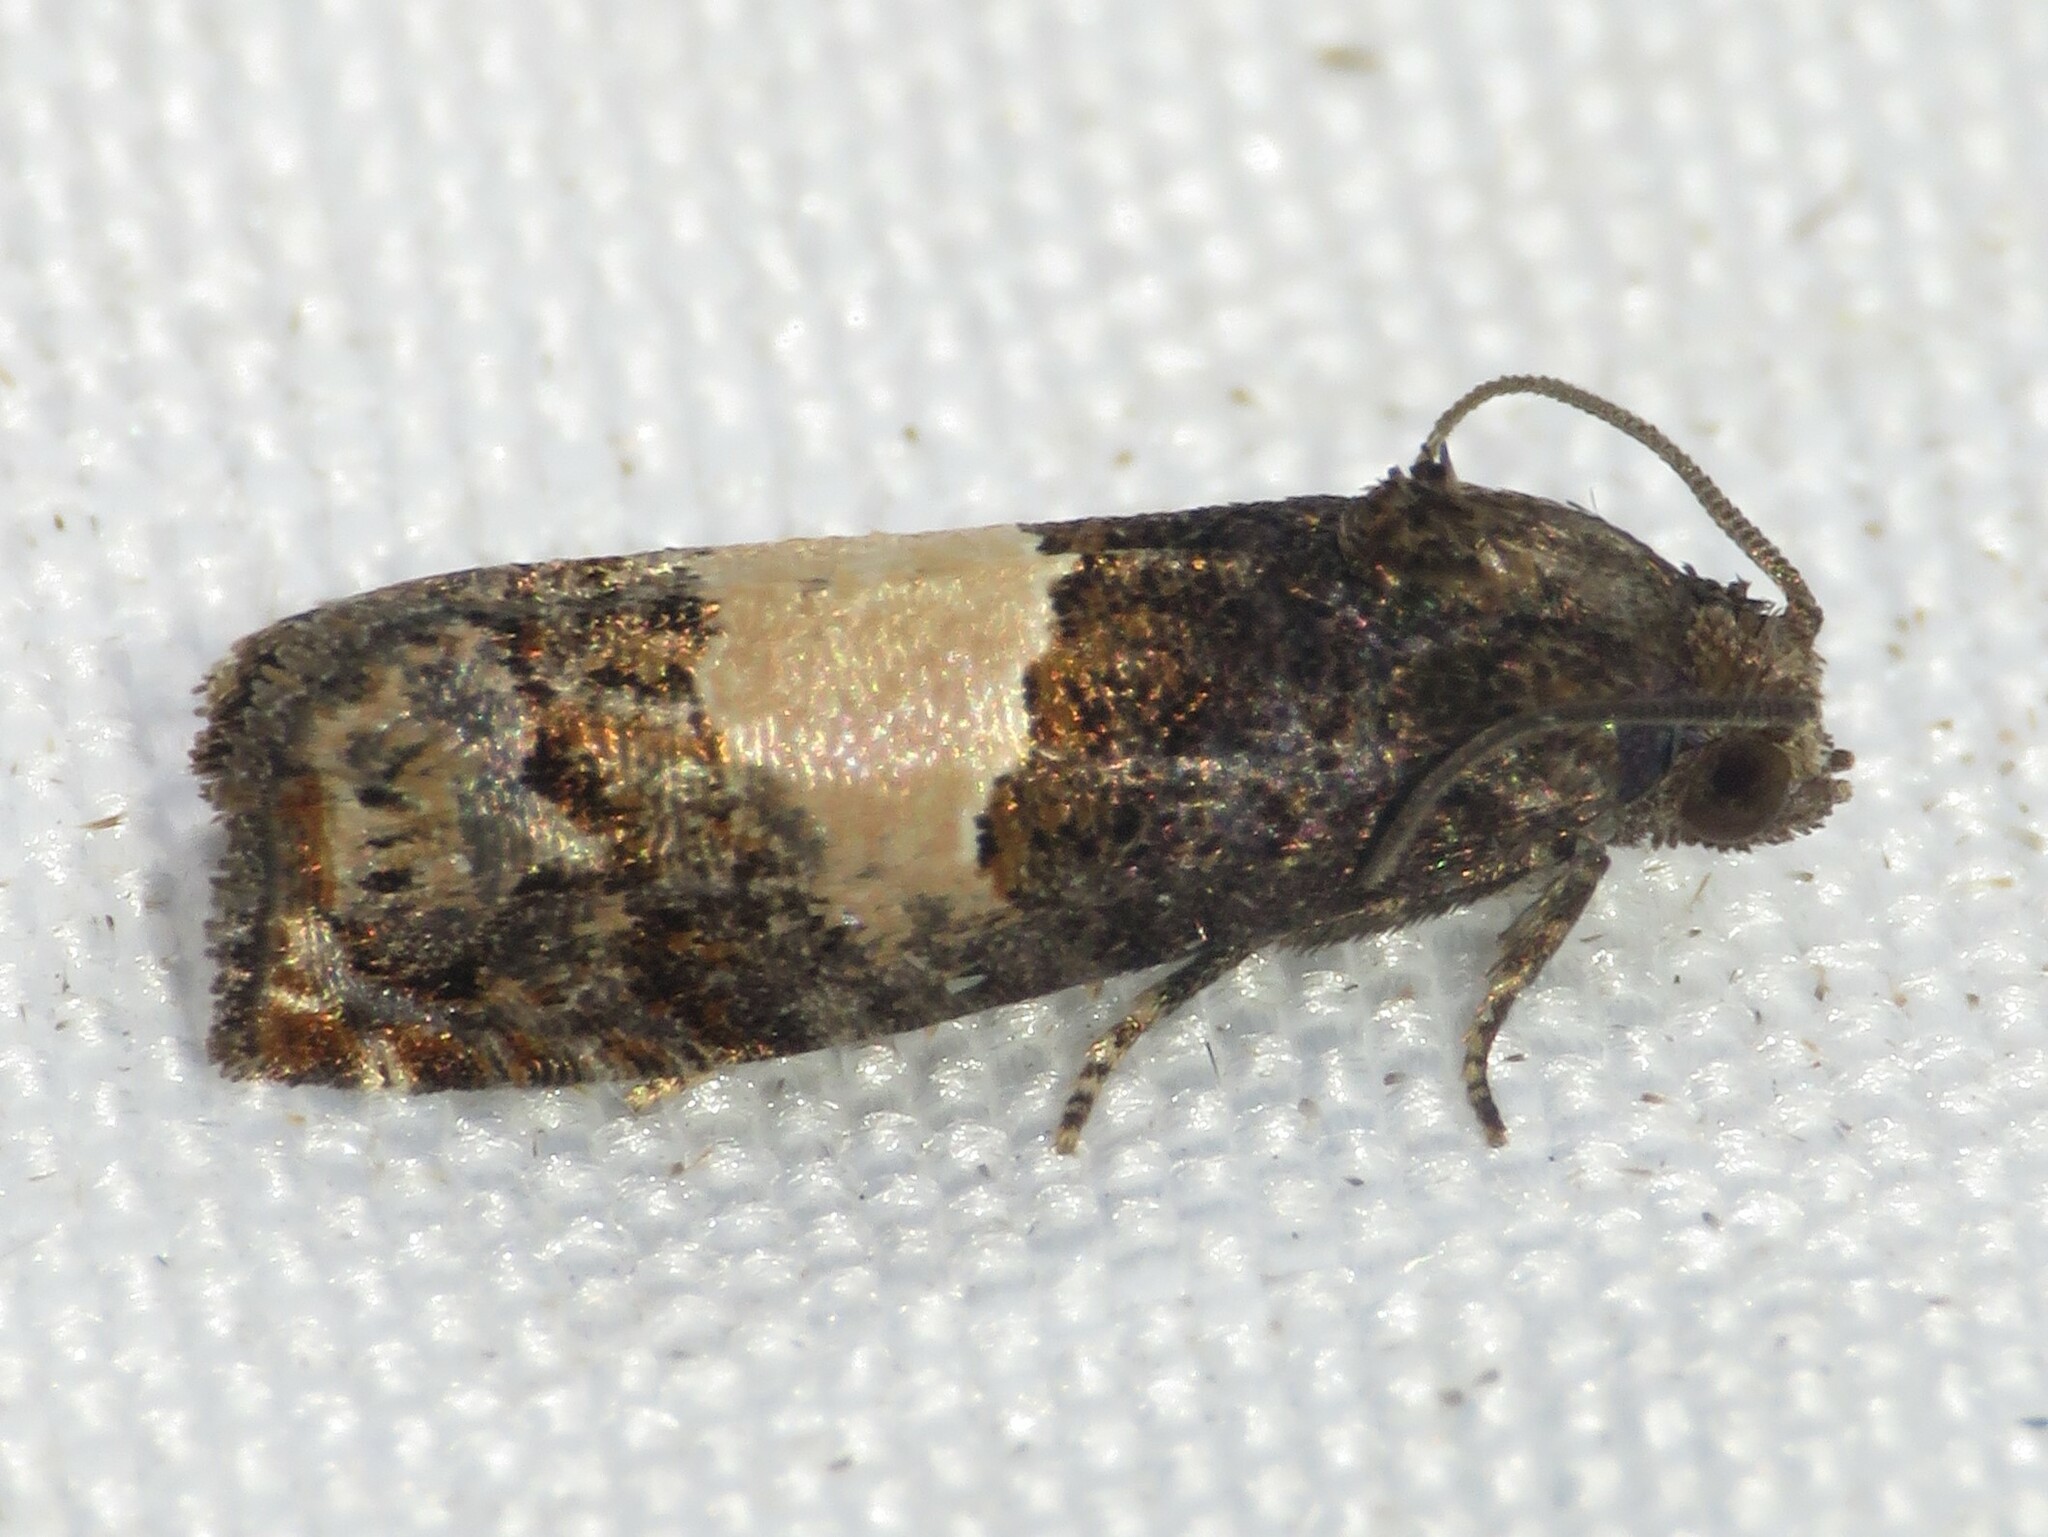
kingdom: Animalia
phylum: Arthropoda
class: Insecta
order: Lepidoptera
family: Tortricidae
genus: Epiblema
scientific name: Epiblema glenni
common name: Glenn's epiblema
